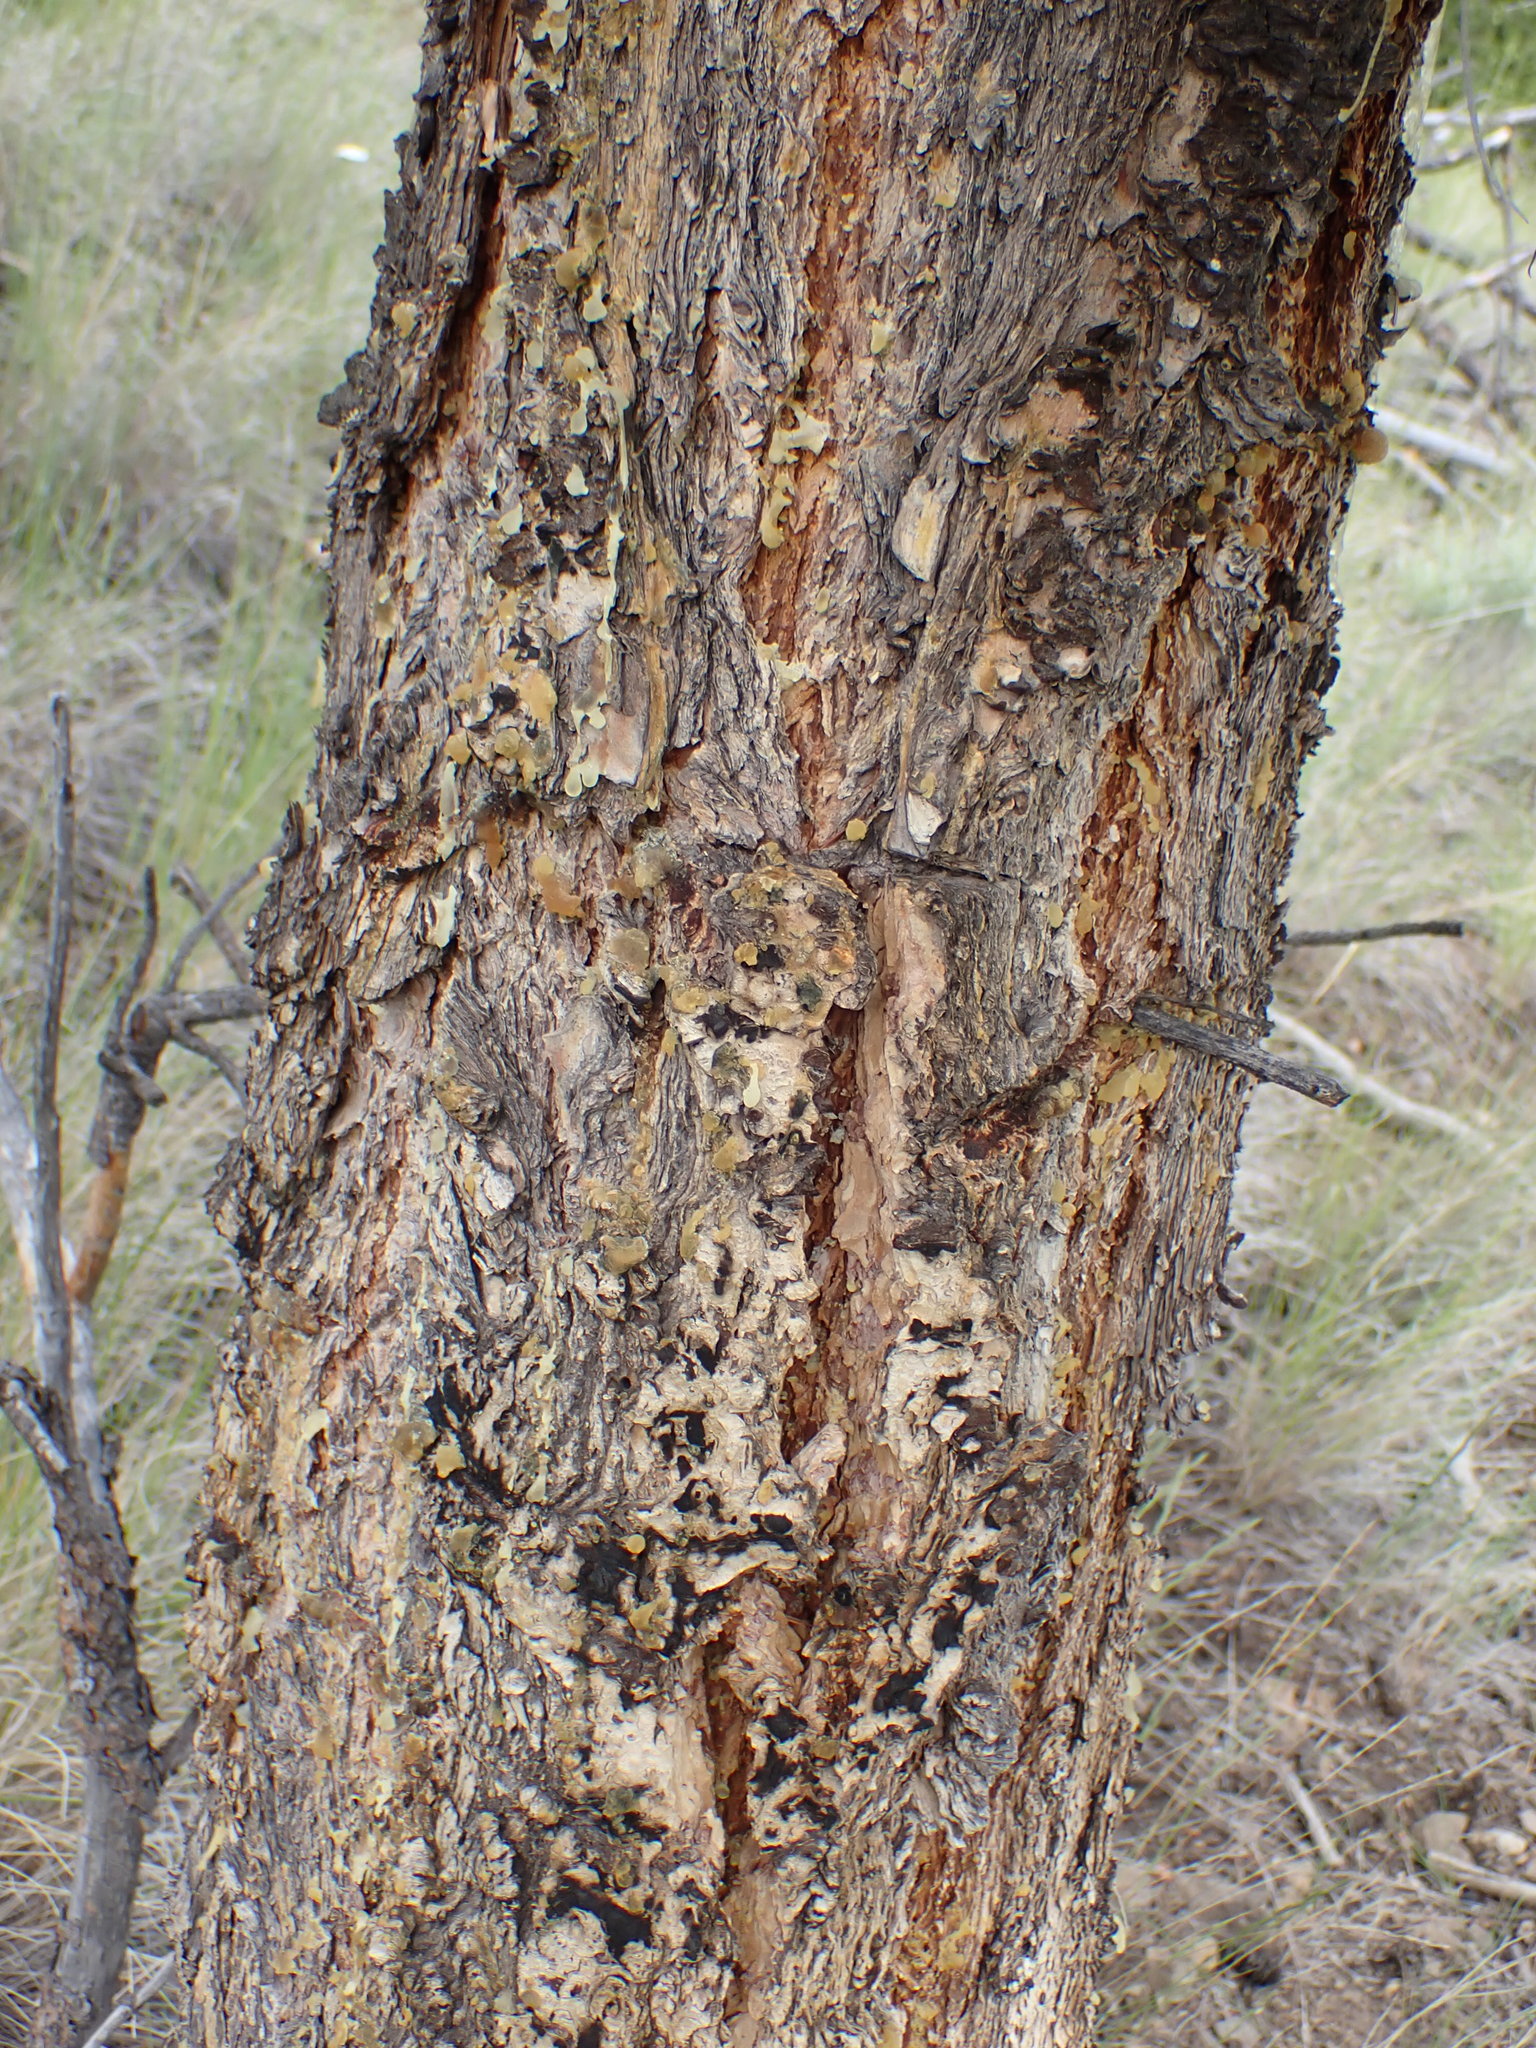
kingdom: Plantae
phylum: Tracheophyta
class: Pinopsida
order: Pinales
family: Pinaceae
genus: Pseudotsuga
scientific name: Pseudotsuga menziesii
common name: Douglas fir
